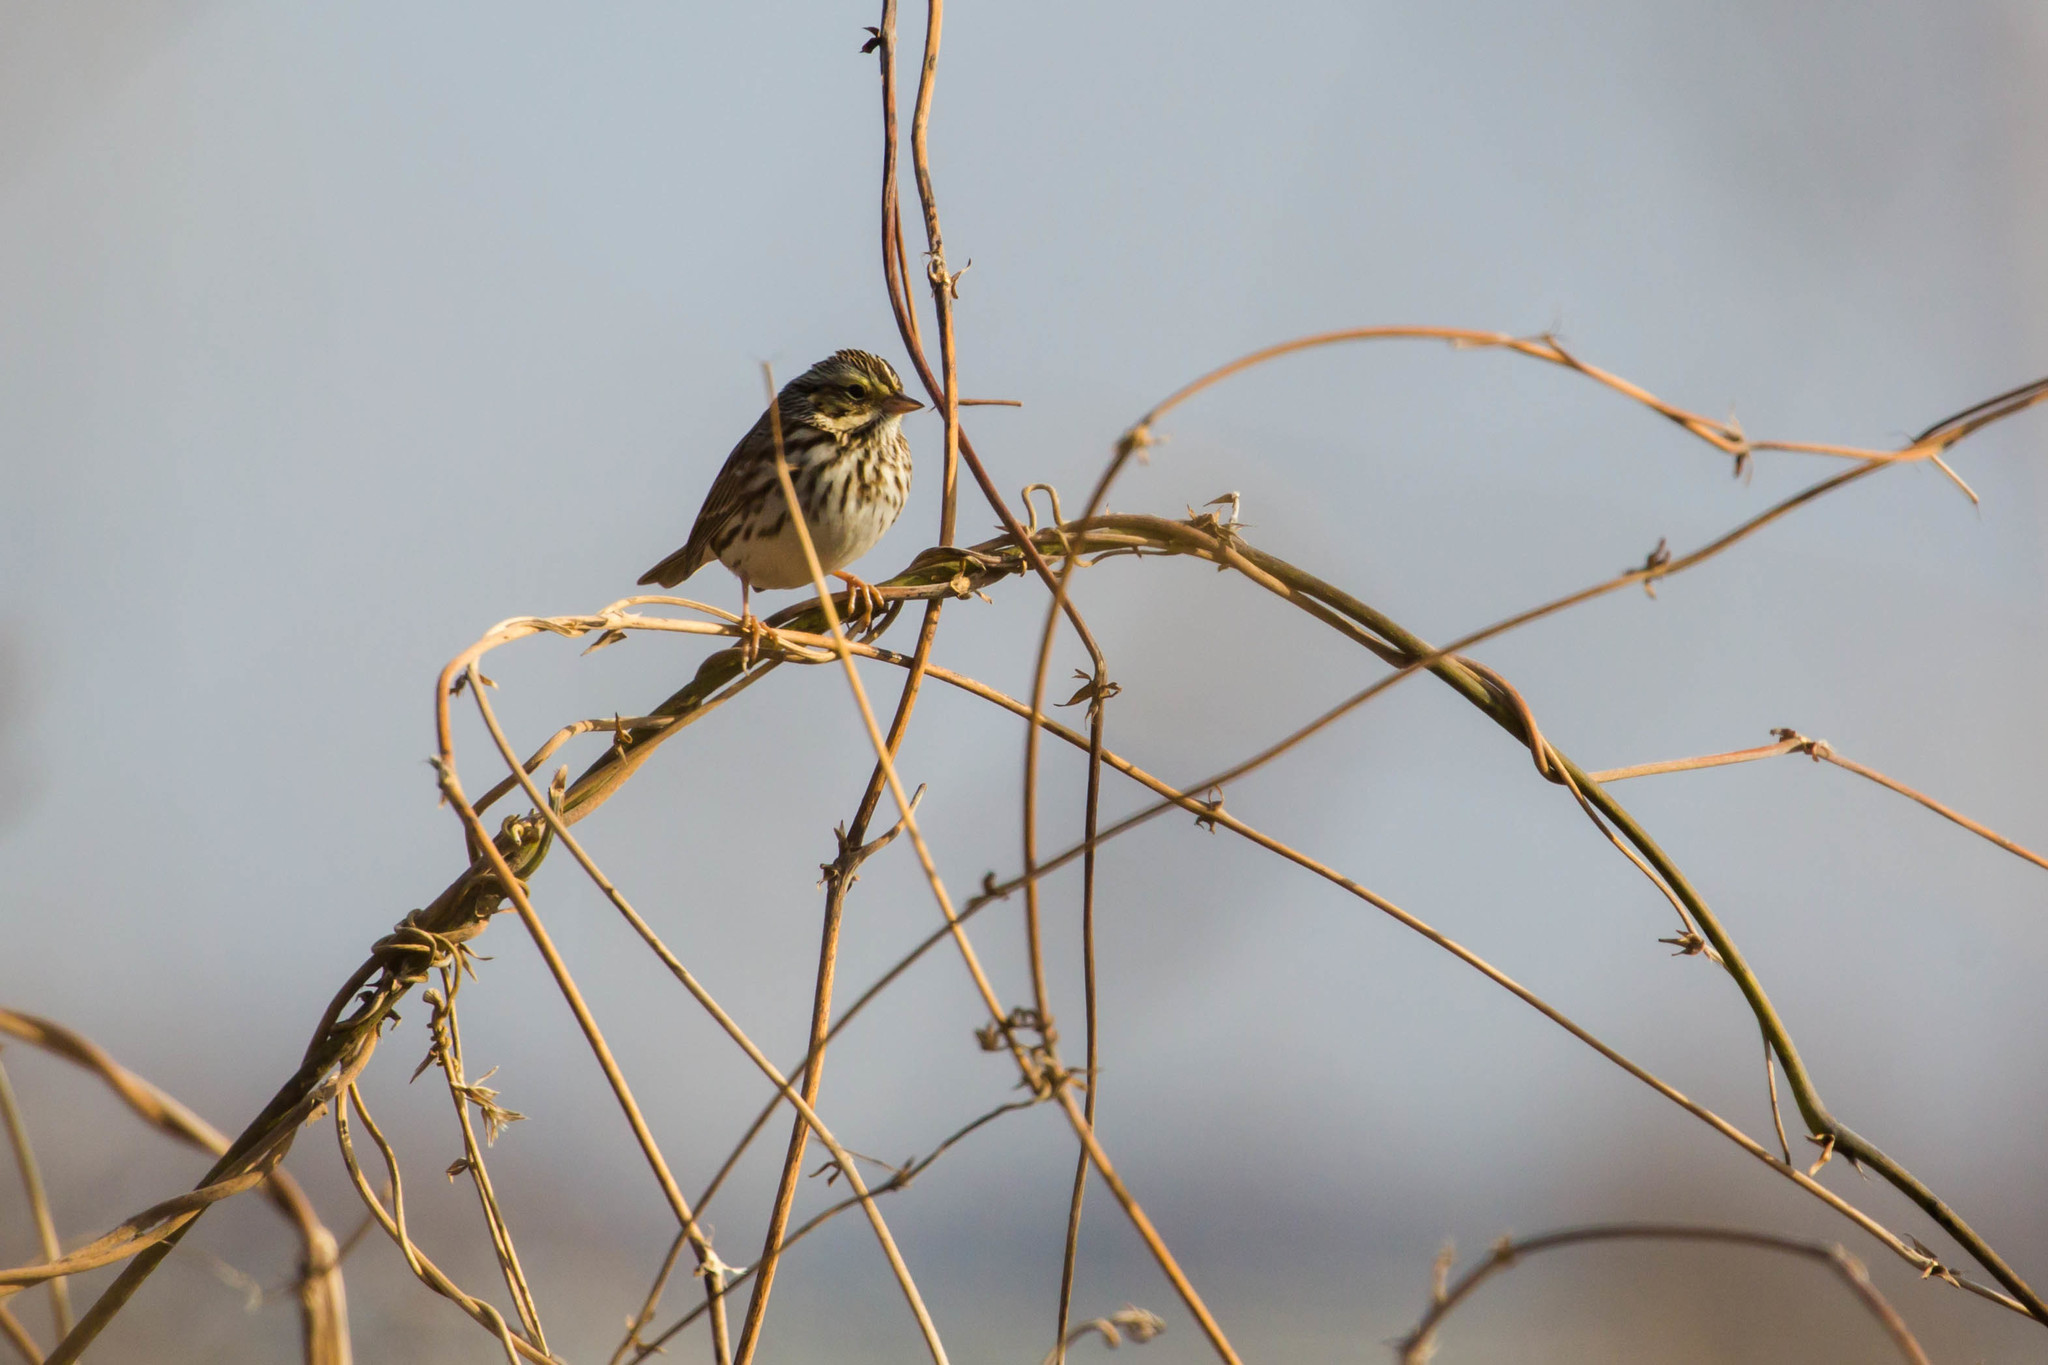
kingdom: Animalia
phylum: Chordata
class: Aves
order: Passeriformes
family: Passerellidae
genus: Passerculus
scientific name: Passerculus sandwichensis
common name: Savannah sparrow
